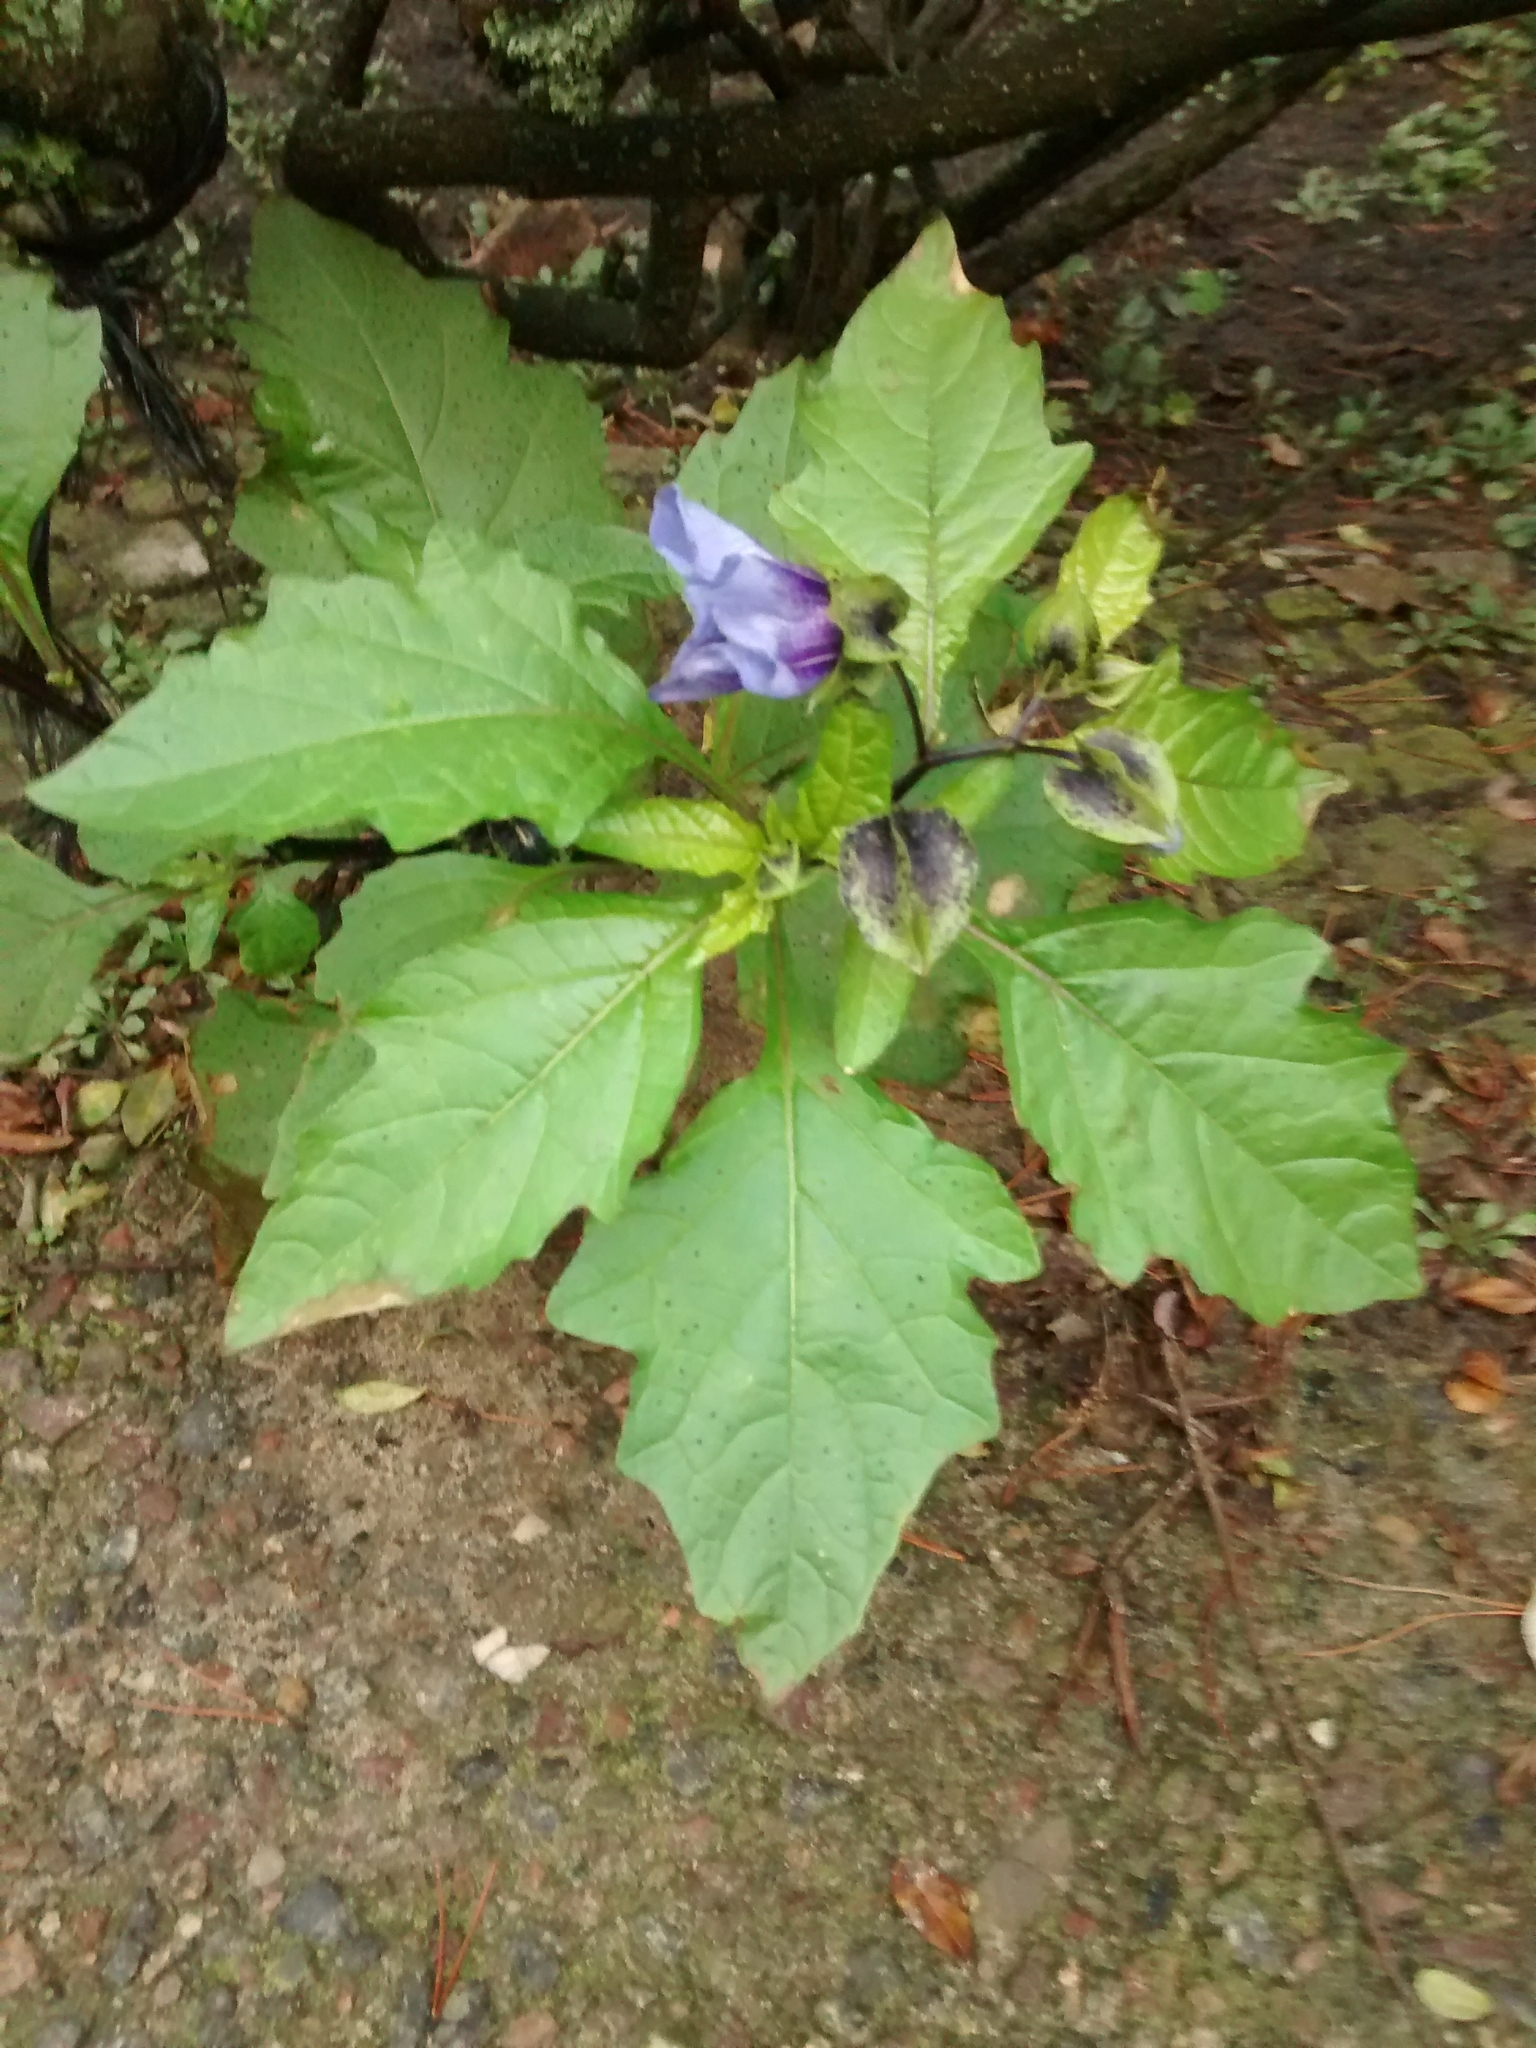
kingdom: Plantae
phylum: Tracheophyta
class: Magnoliopsida
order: Solanales
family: Solanaceae
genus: Nicandra
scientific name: Nicandra physalodes
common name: Apple-of-peru
